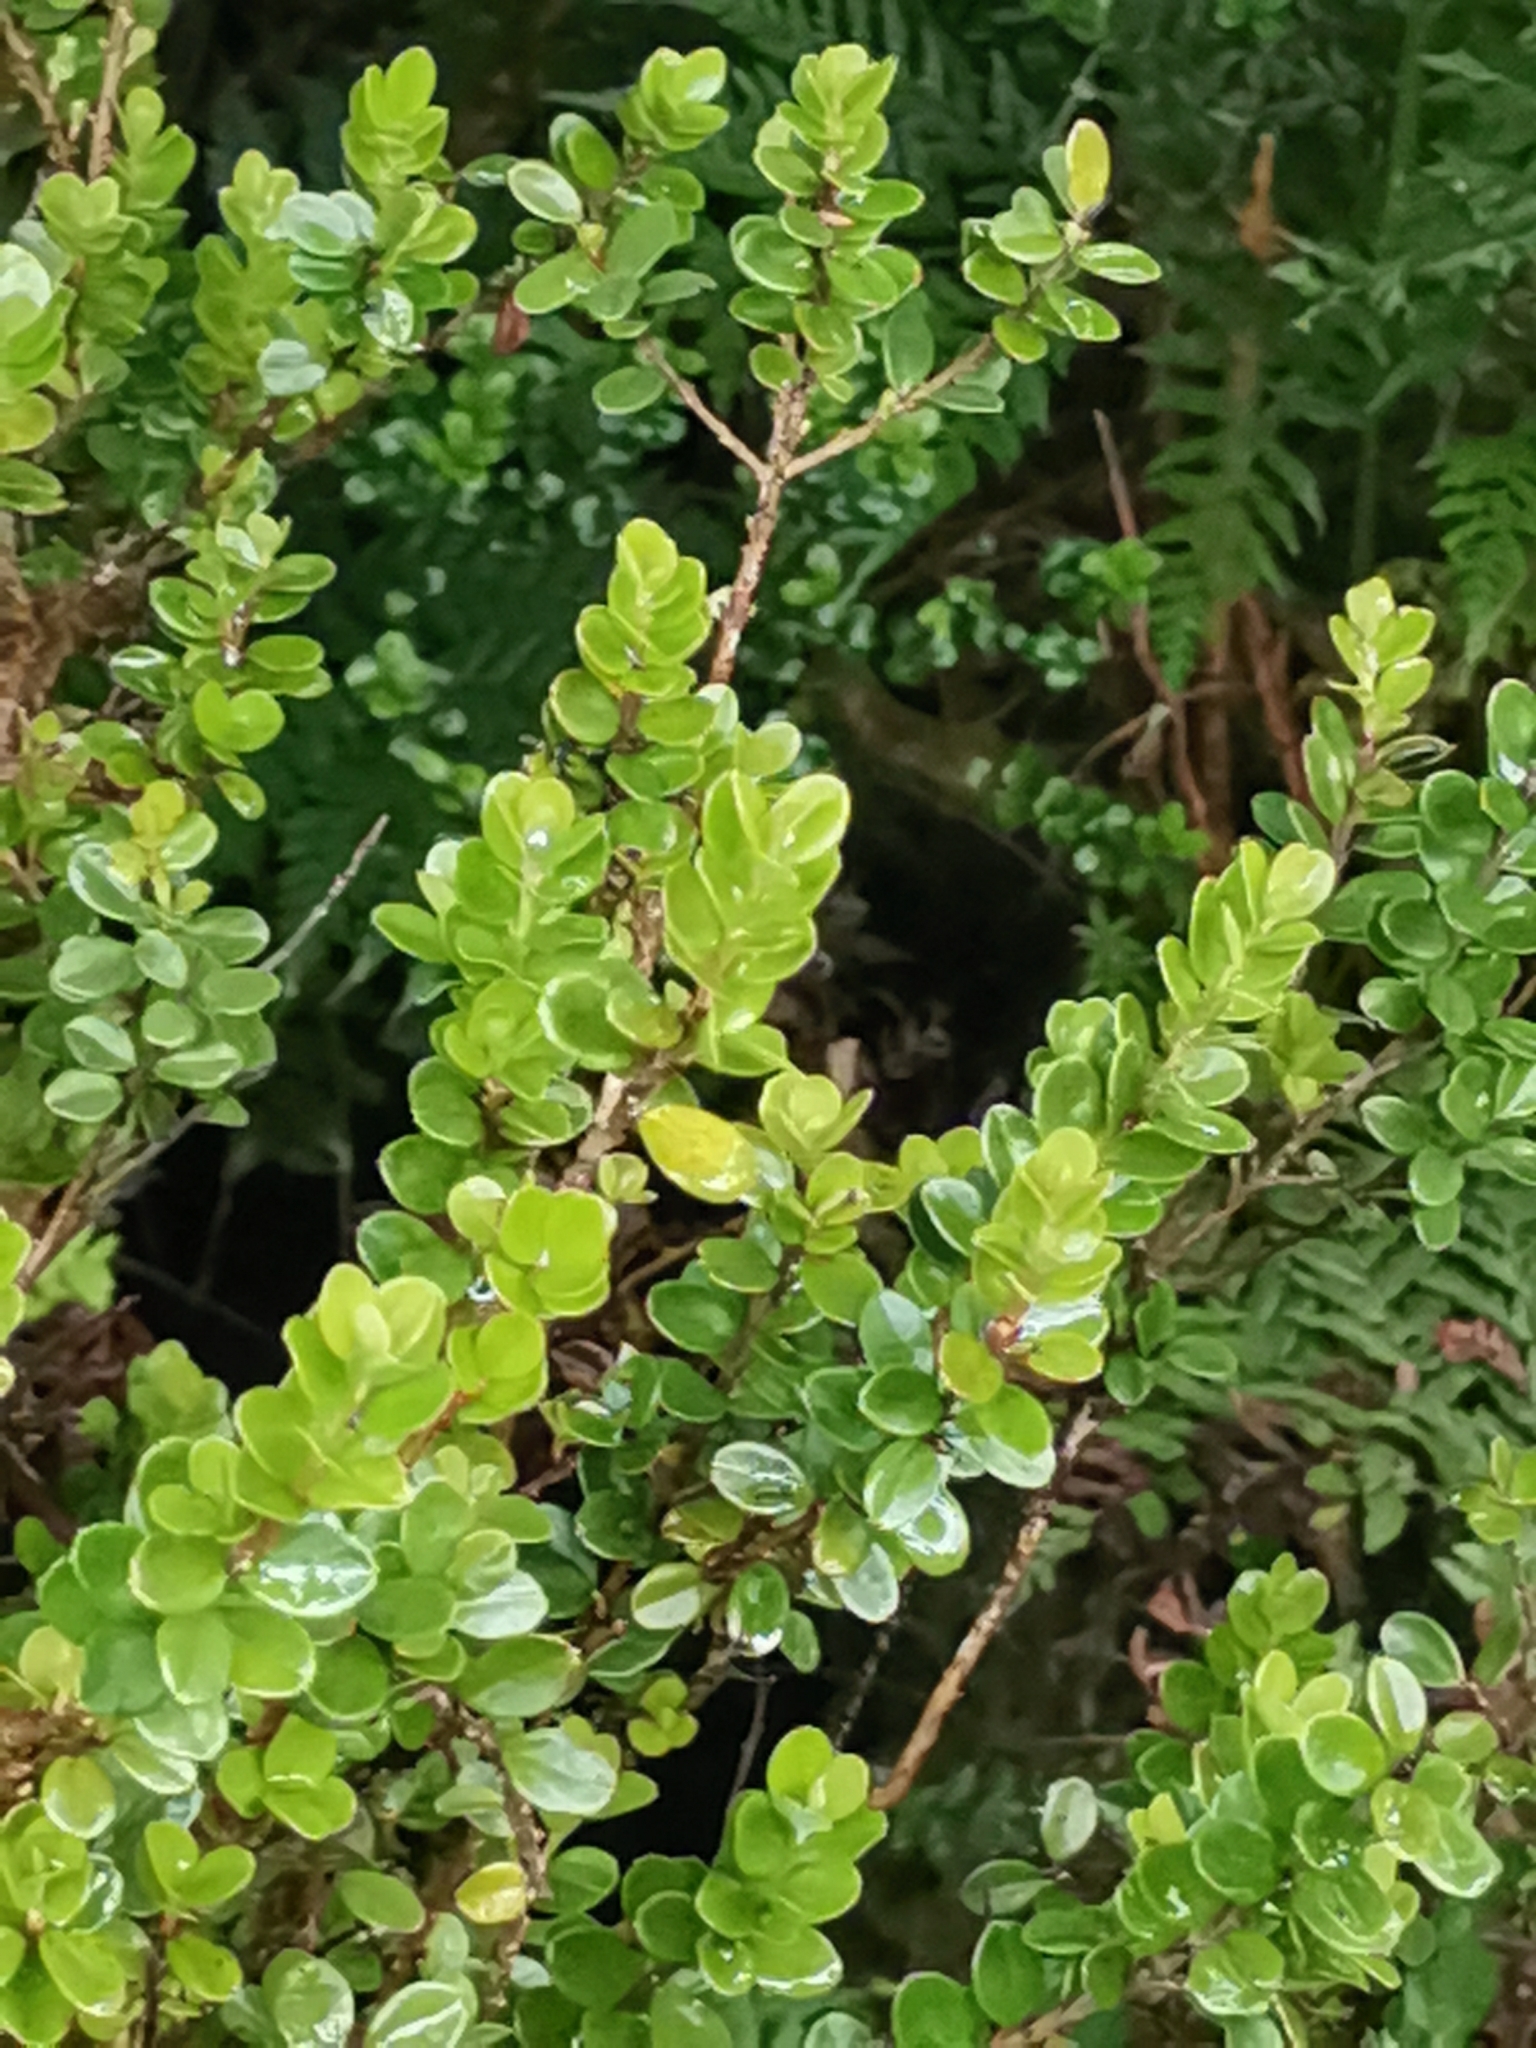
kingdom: Plantae
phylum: Tracheophyta
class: Magnoliopsida
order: Ericales
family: Primulaceae
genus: Myrsine
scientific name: Myrsine africana
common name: African-boxwood
